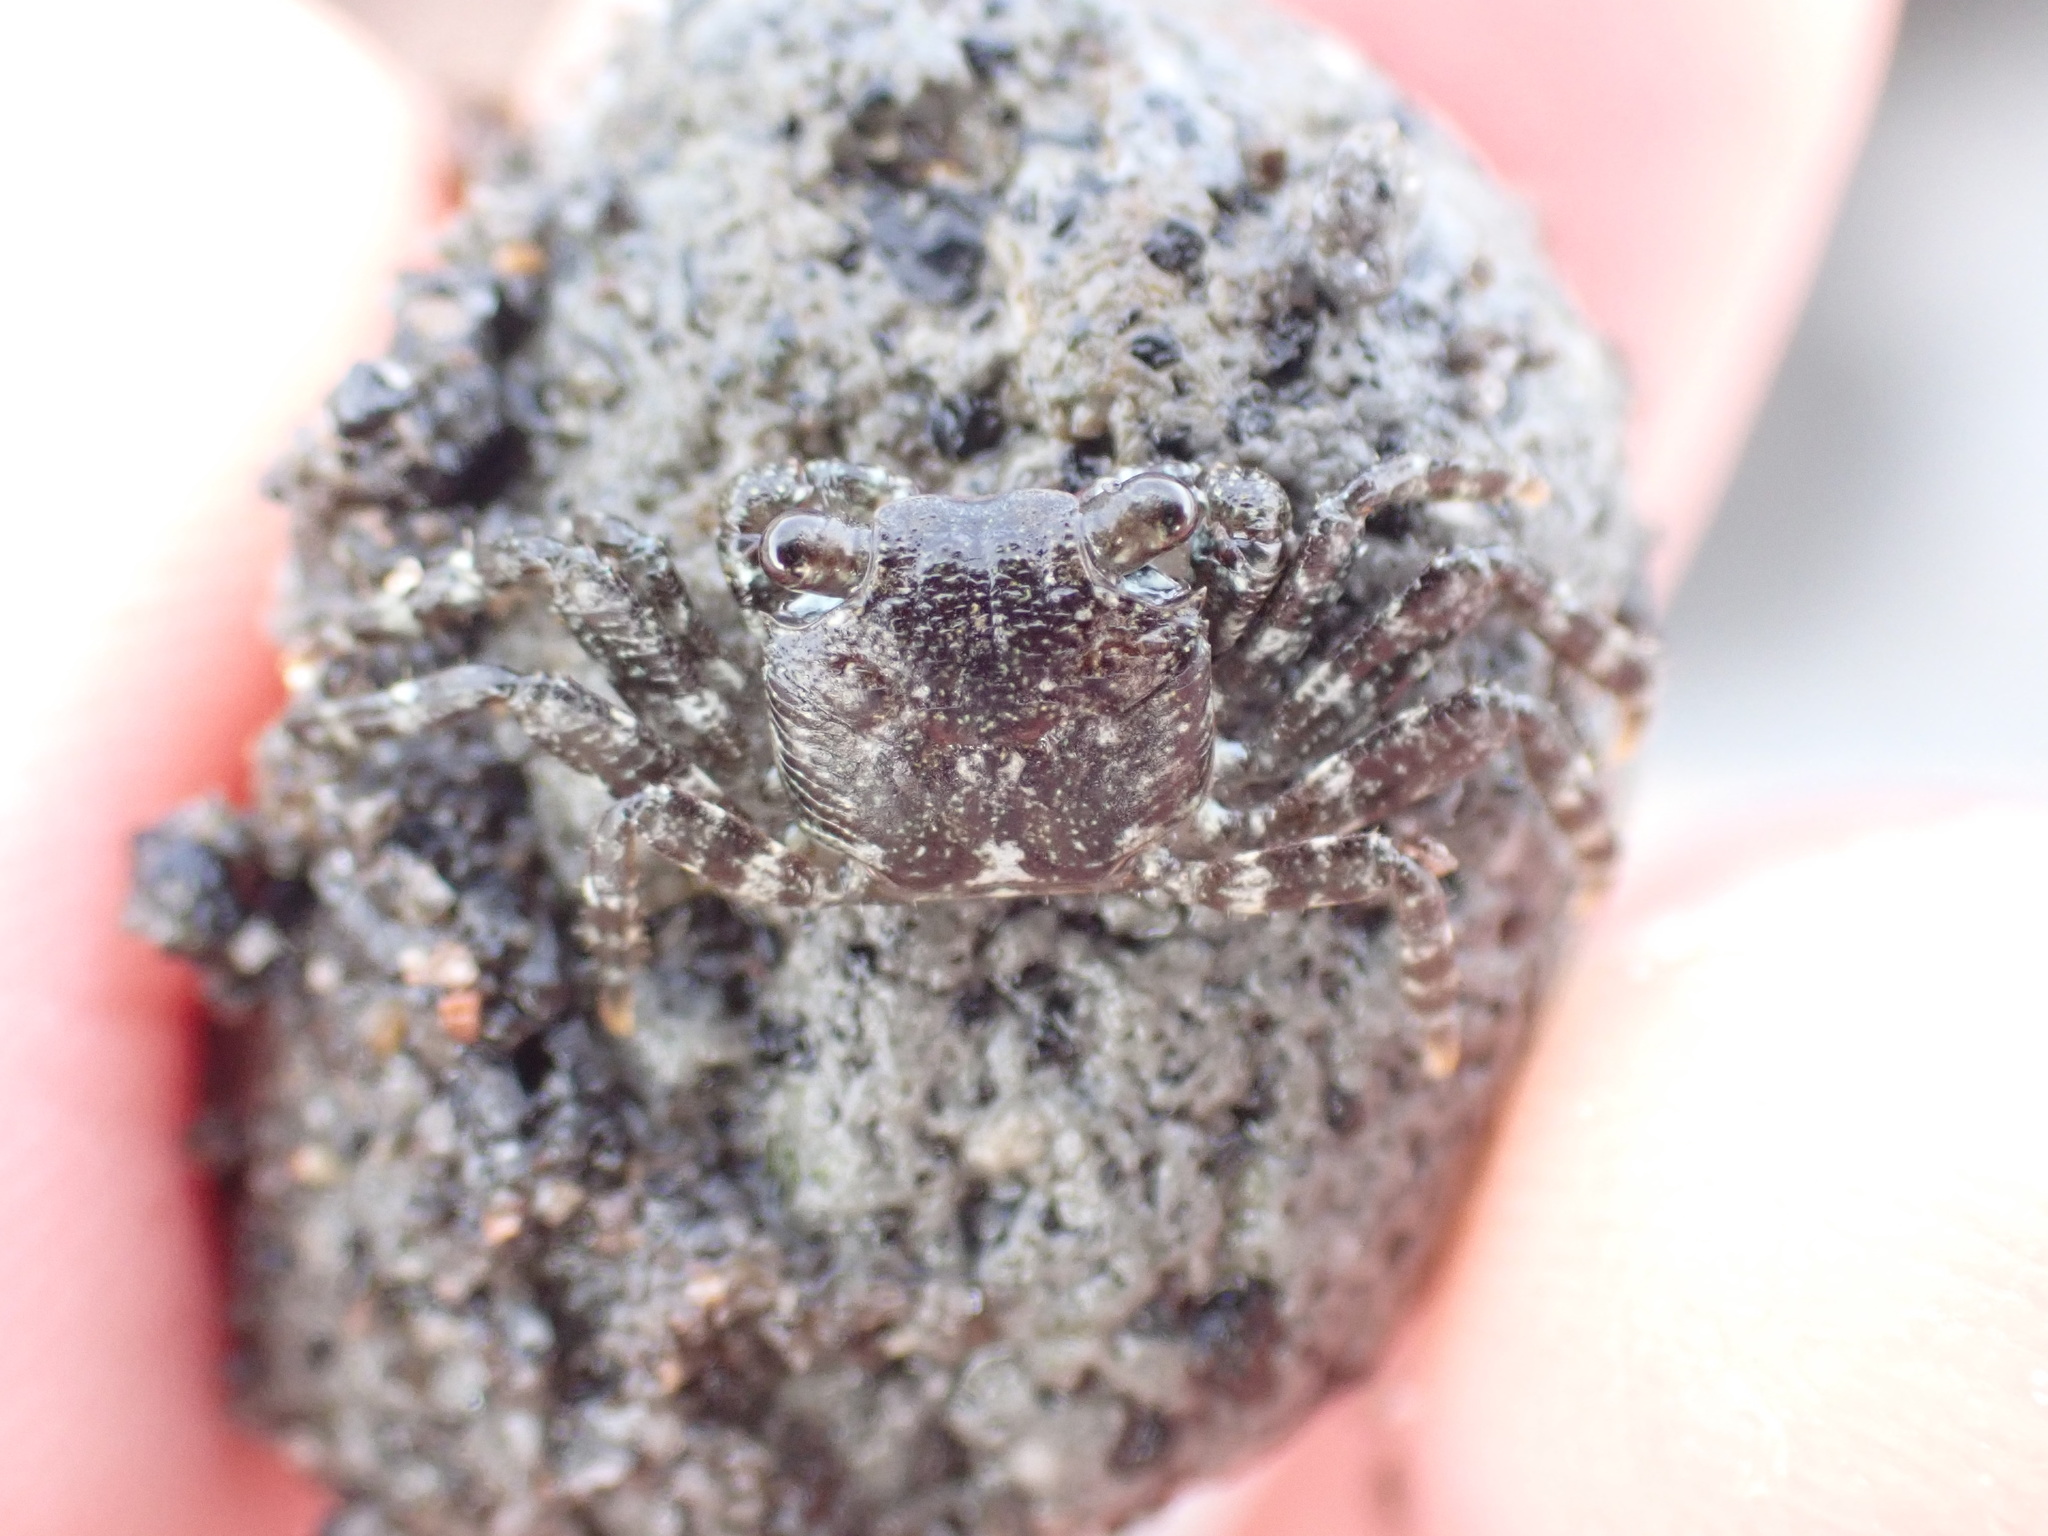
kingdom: Animalia
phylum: Arthropoda
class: Malacostraca
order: Decapoda
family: Grapsidae
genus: Leptograpsus
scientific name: Leptograpsus variegatus
